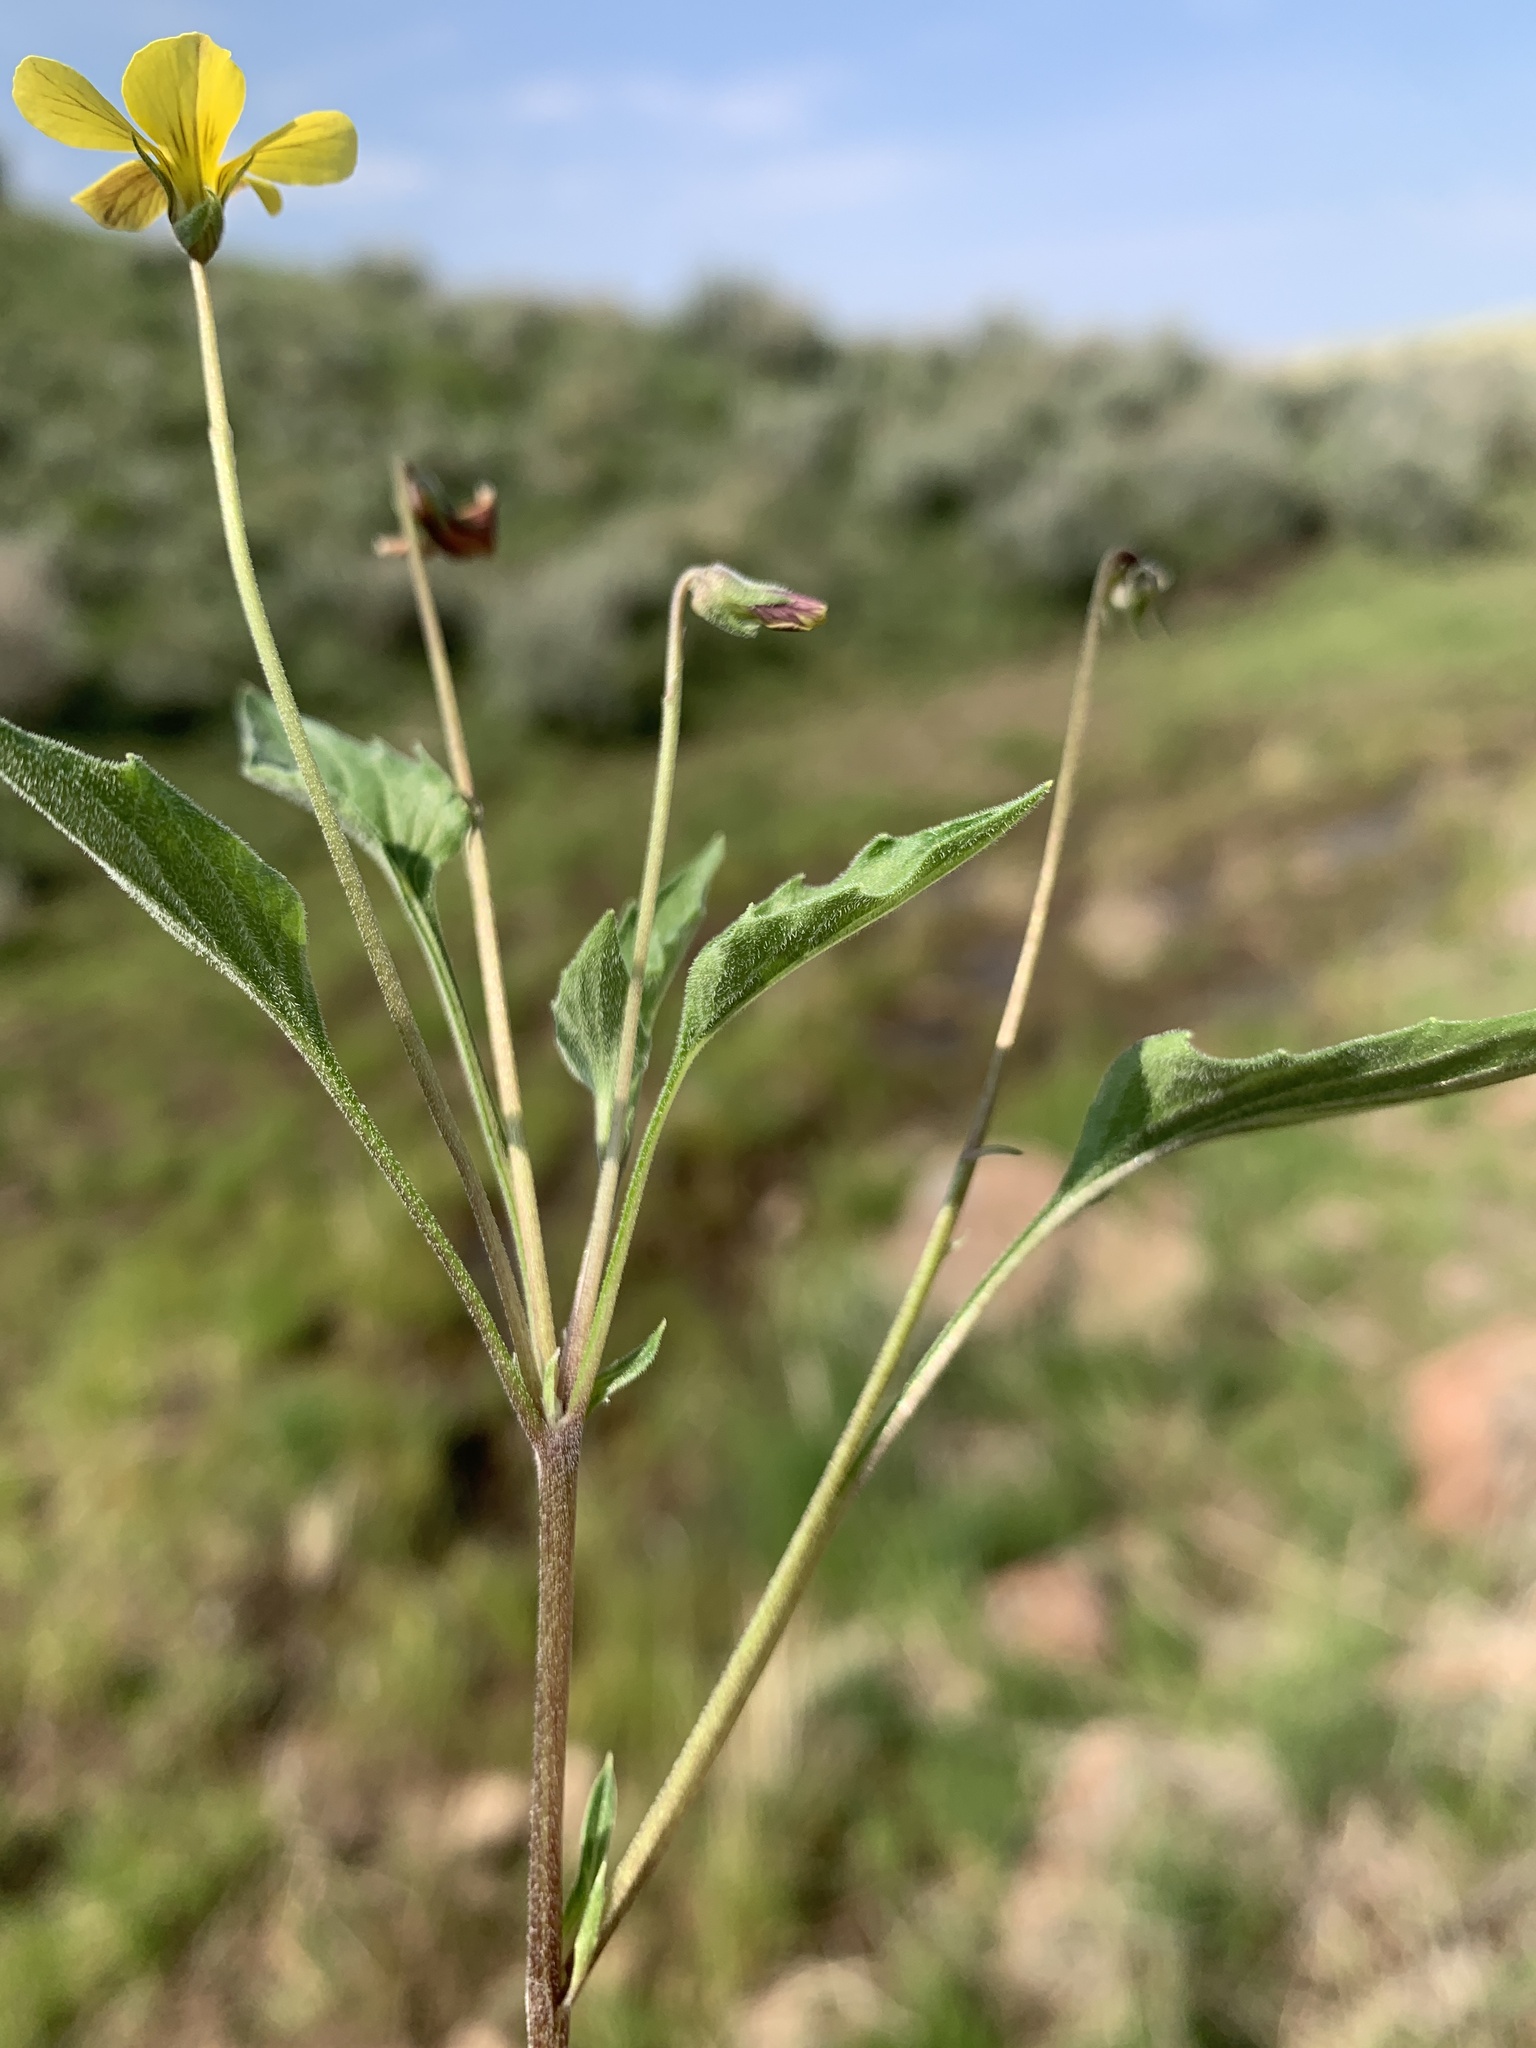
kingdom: Plantae
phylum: Tracheophyta
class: Magnoliopsida
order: Malpighiales
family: Violaceae
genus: Viola
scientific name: Viola purpurea
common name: Pine violet
